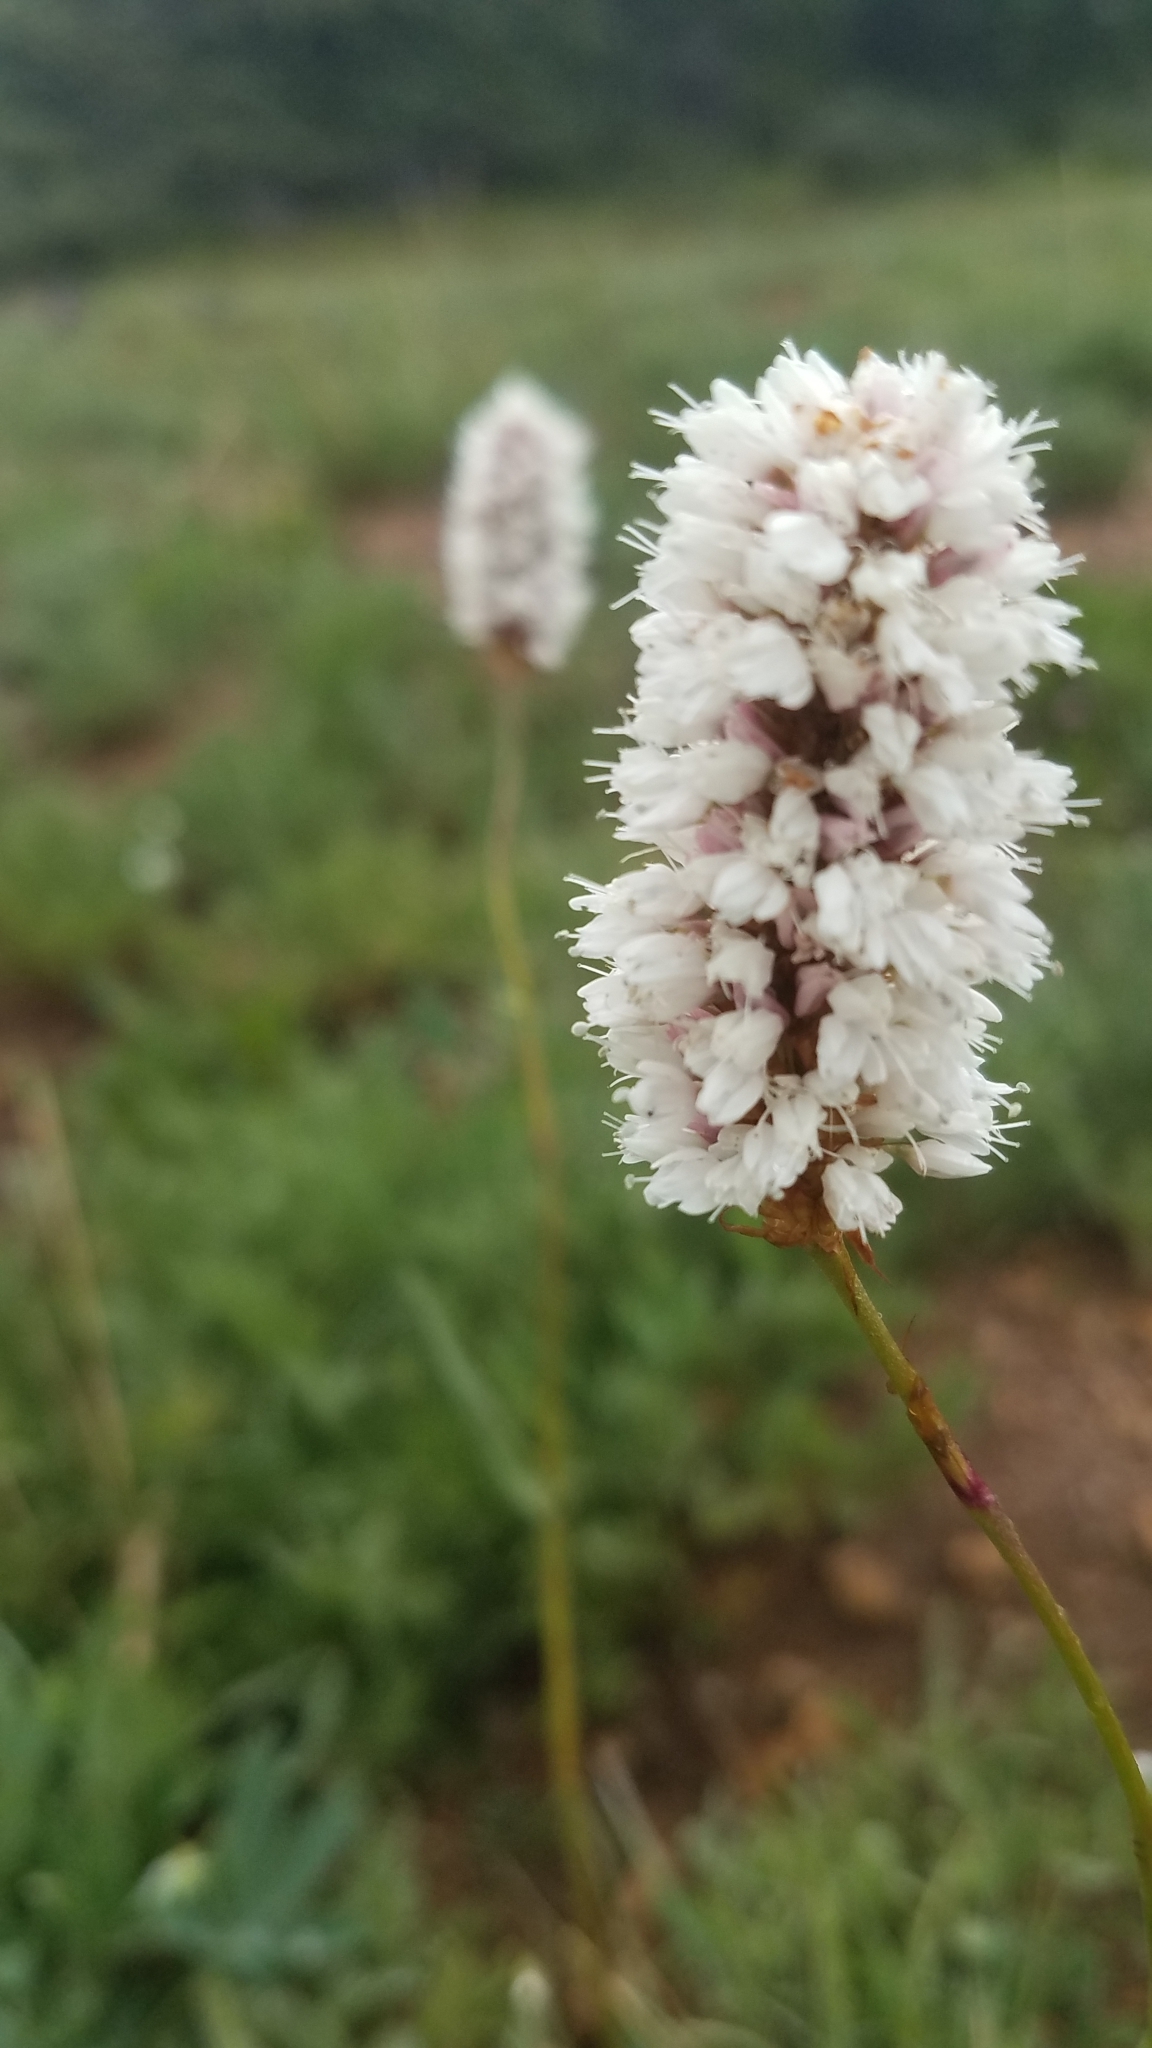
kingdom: Plantae
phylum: Tracheophyta
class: Magnoliopsida
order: Caryophyllales
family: Polygonaceae
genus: Bistorta
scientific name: Bistorta bistortoides
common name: American bistort
